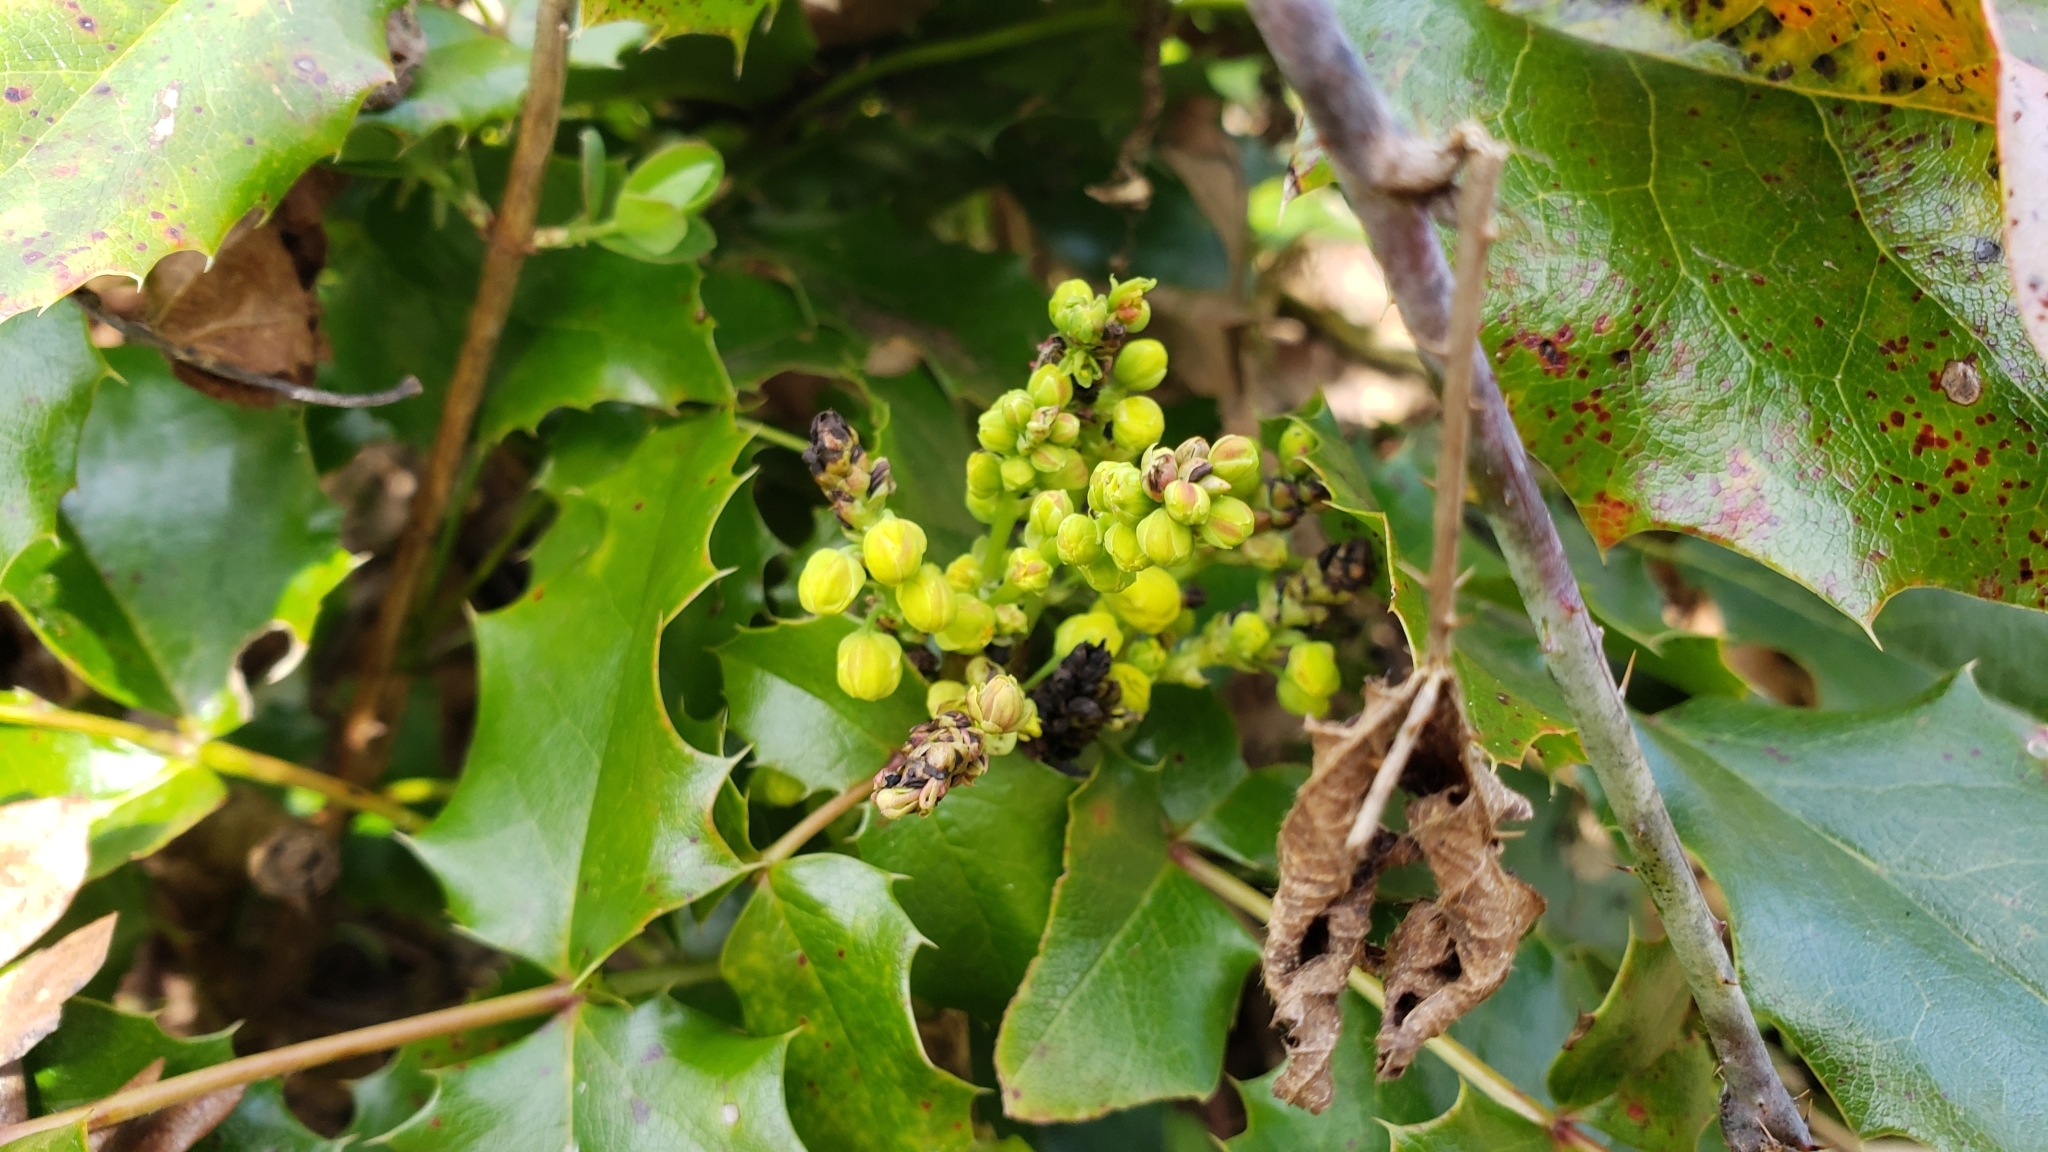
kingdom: Plantae
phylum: Tracheophyta
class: Magnoliopsida
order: Ranunculales
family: Berberidaceae
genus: Mahonia
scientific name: Mahonia aquifolium
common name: Oregon-grape
